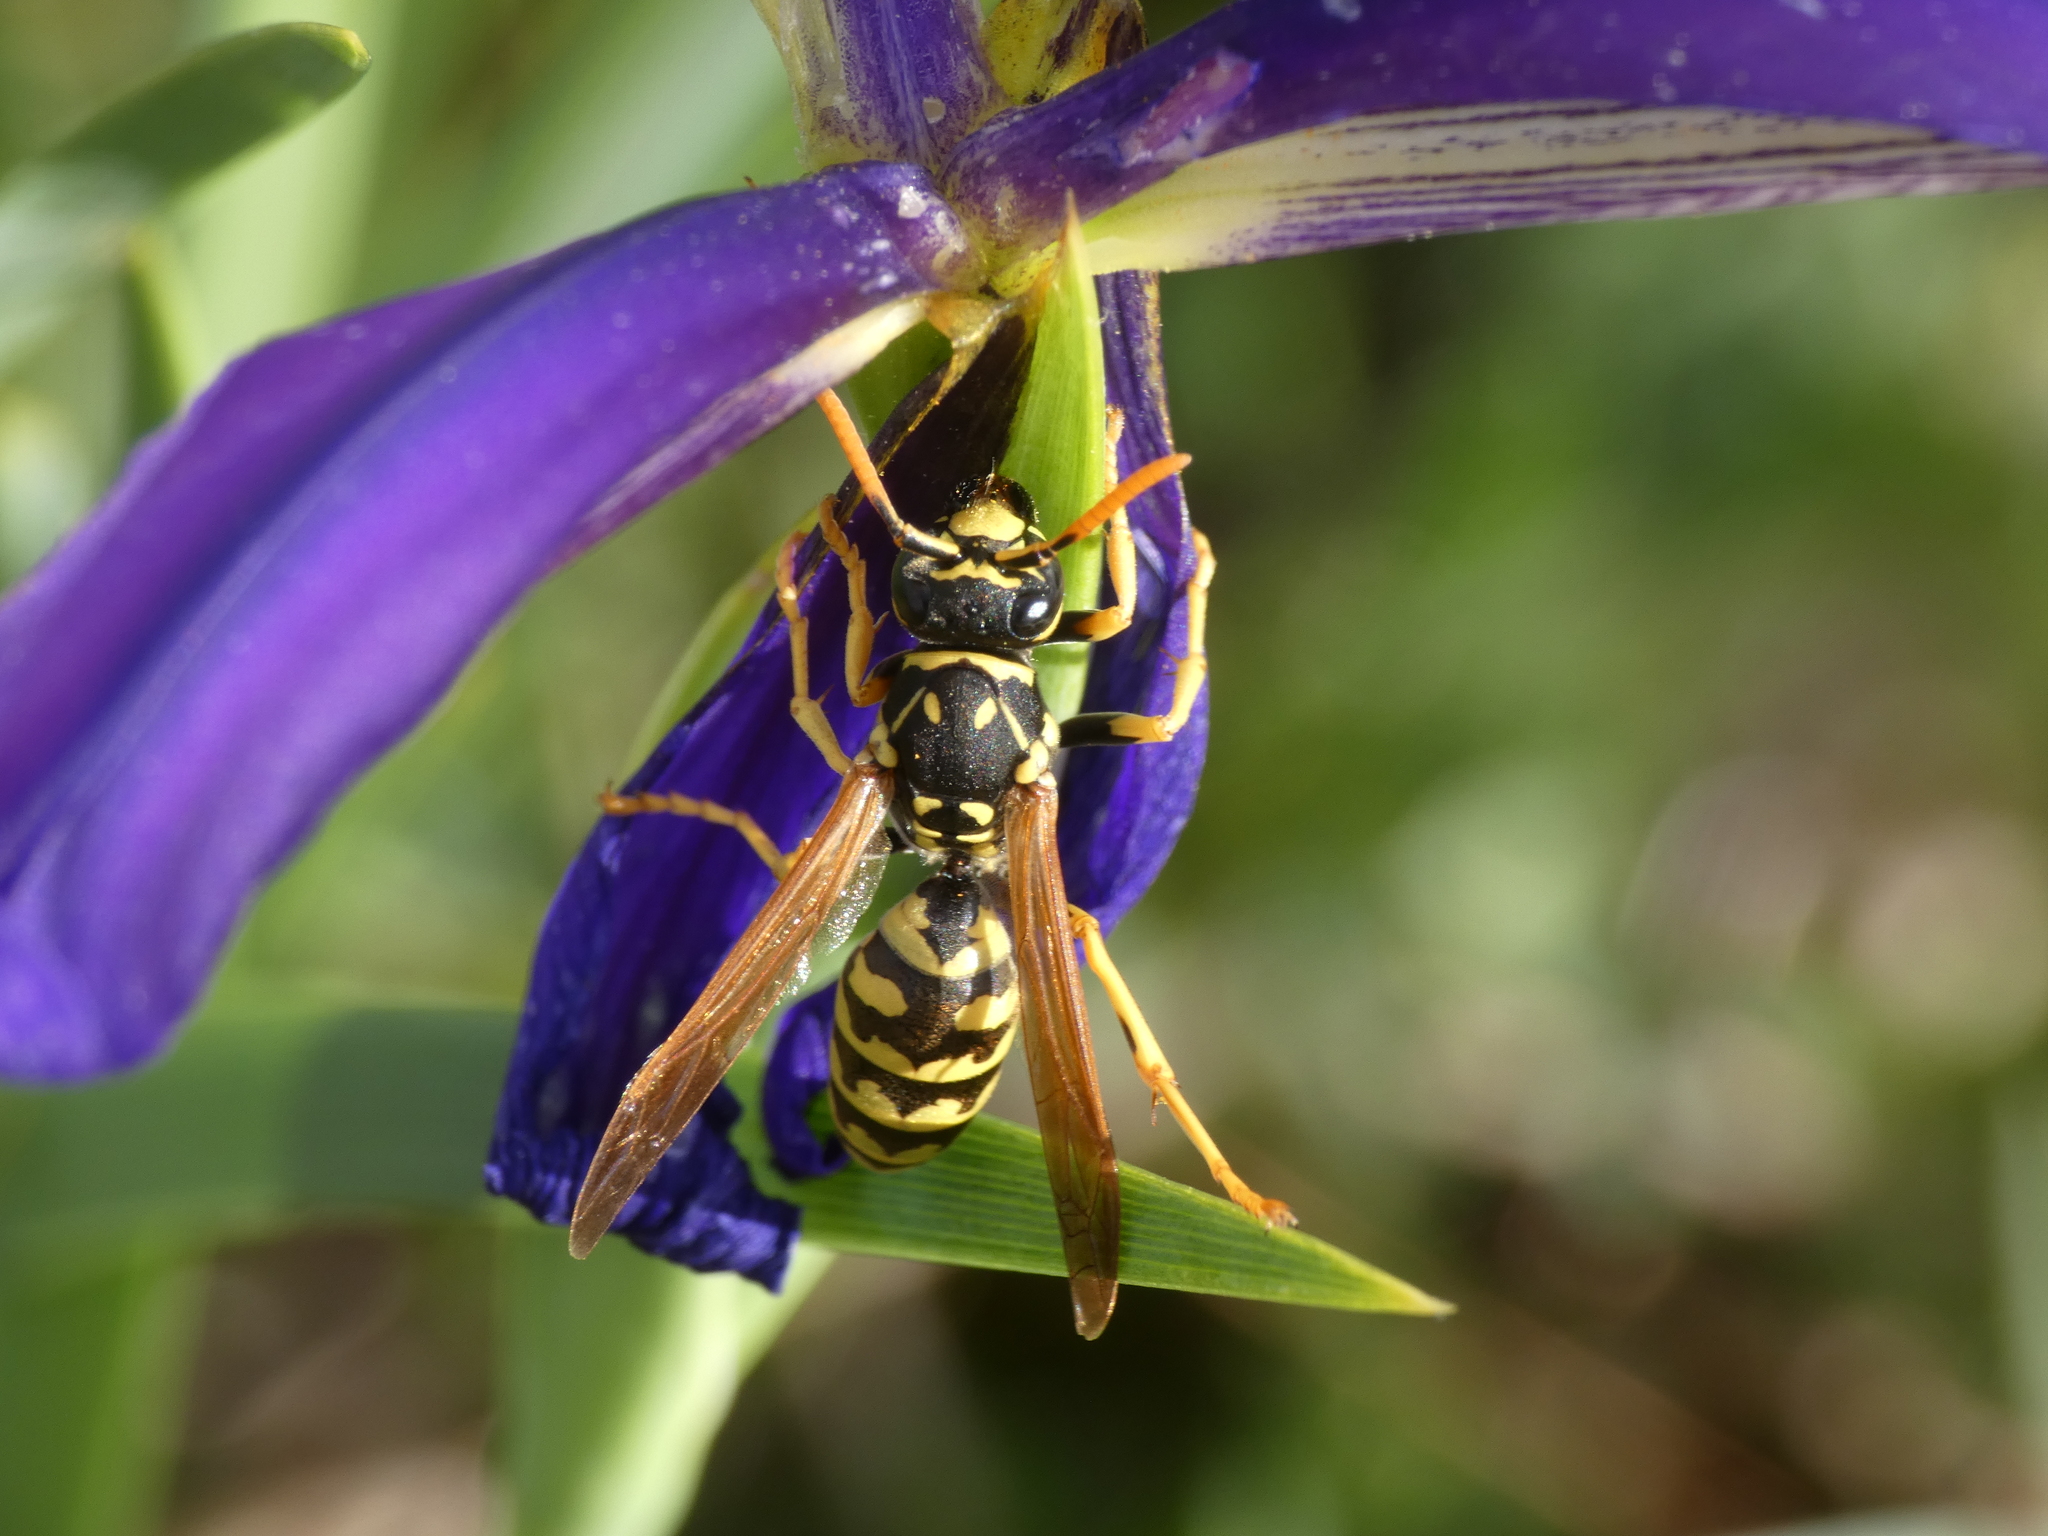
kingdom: Animalia
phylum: Arthropoda
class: Insecta
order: Hymenoptera
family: Eumenidae
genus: Polistes
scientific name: Polistes dominula
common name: Paper wasp
